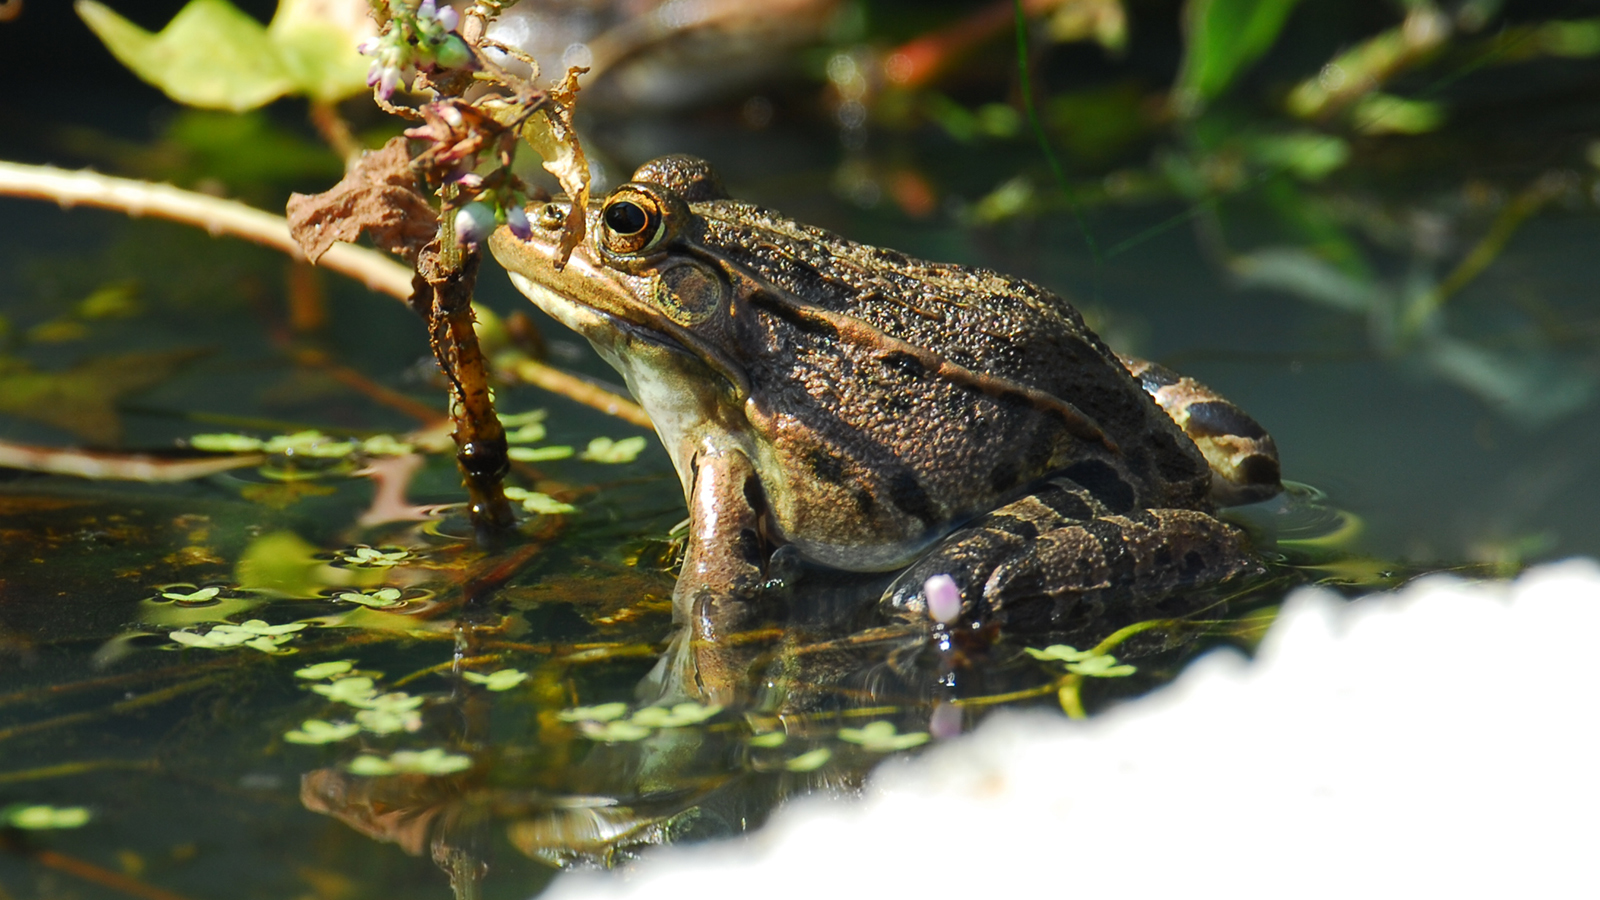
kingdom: Animalia
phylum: Chordata
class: Amphibia
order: Anura
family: Ranidae
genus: Pelophylax
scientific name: Pelophylax nigromaculatus
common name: Black-spotted pond frog
